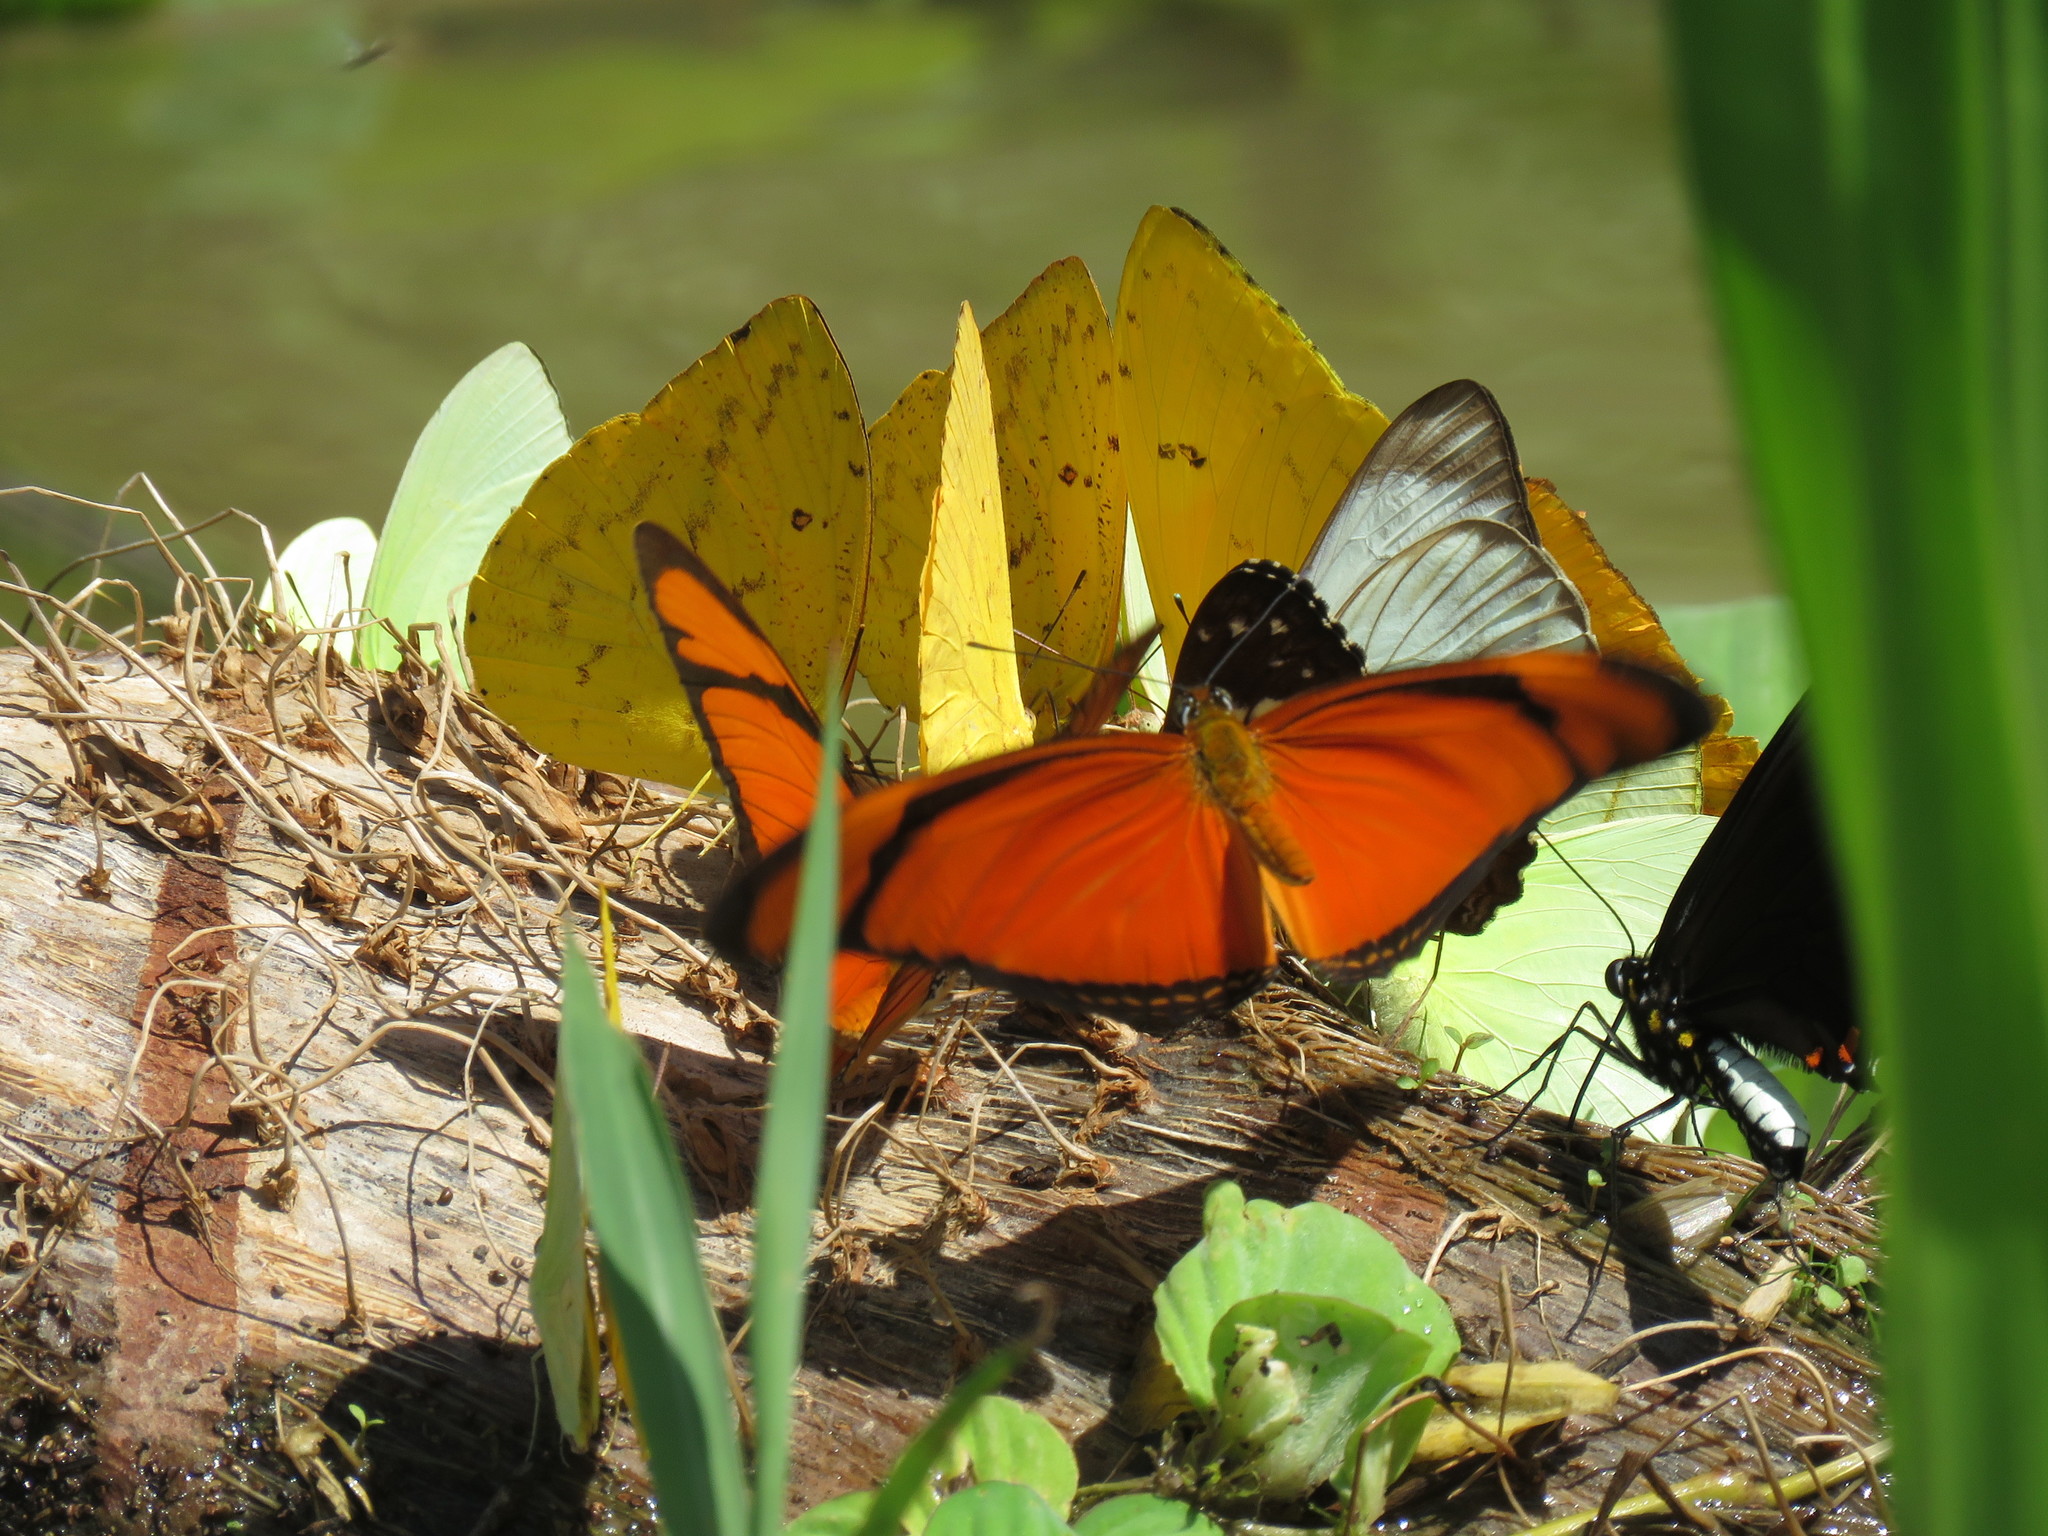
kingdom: Animalia
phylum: Arthropoda
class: Insecta
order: Lepidoptera
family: Nymphalidae
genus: Dryas
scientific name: Dryas iulia
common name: Flambeau
